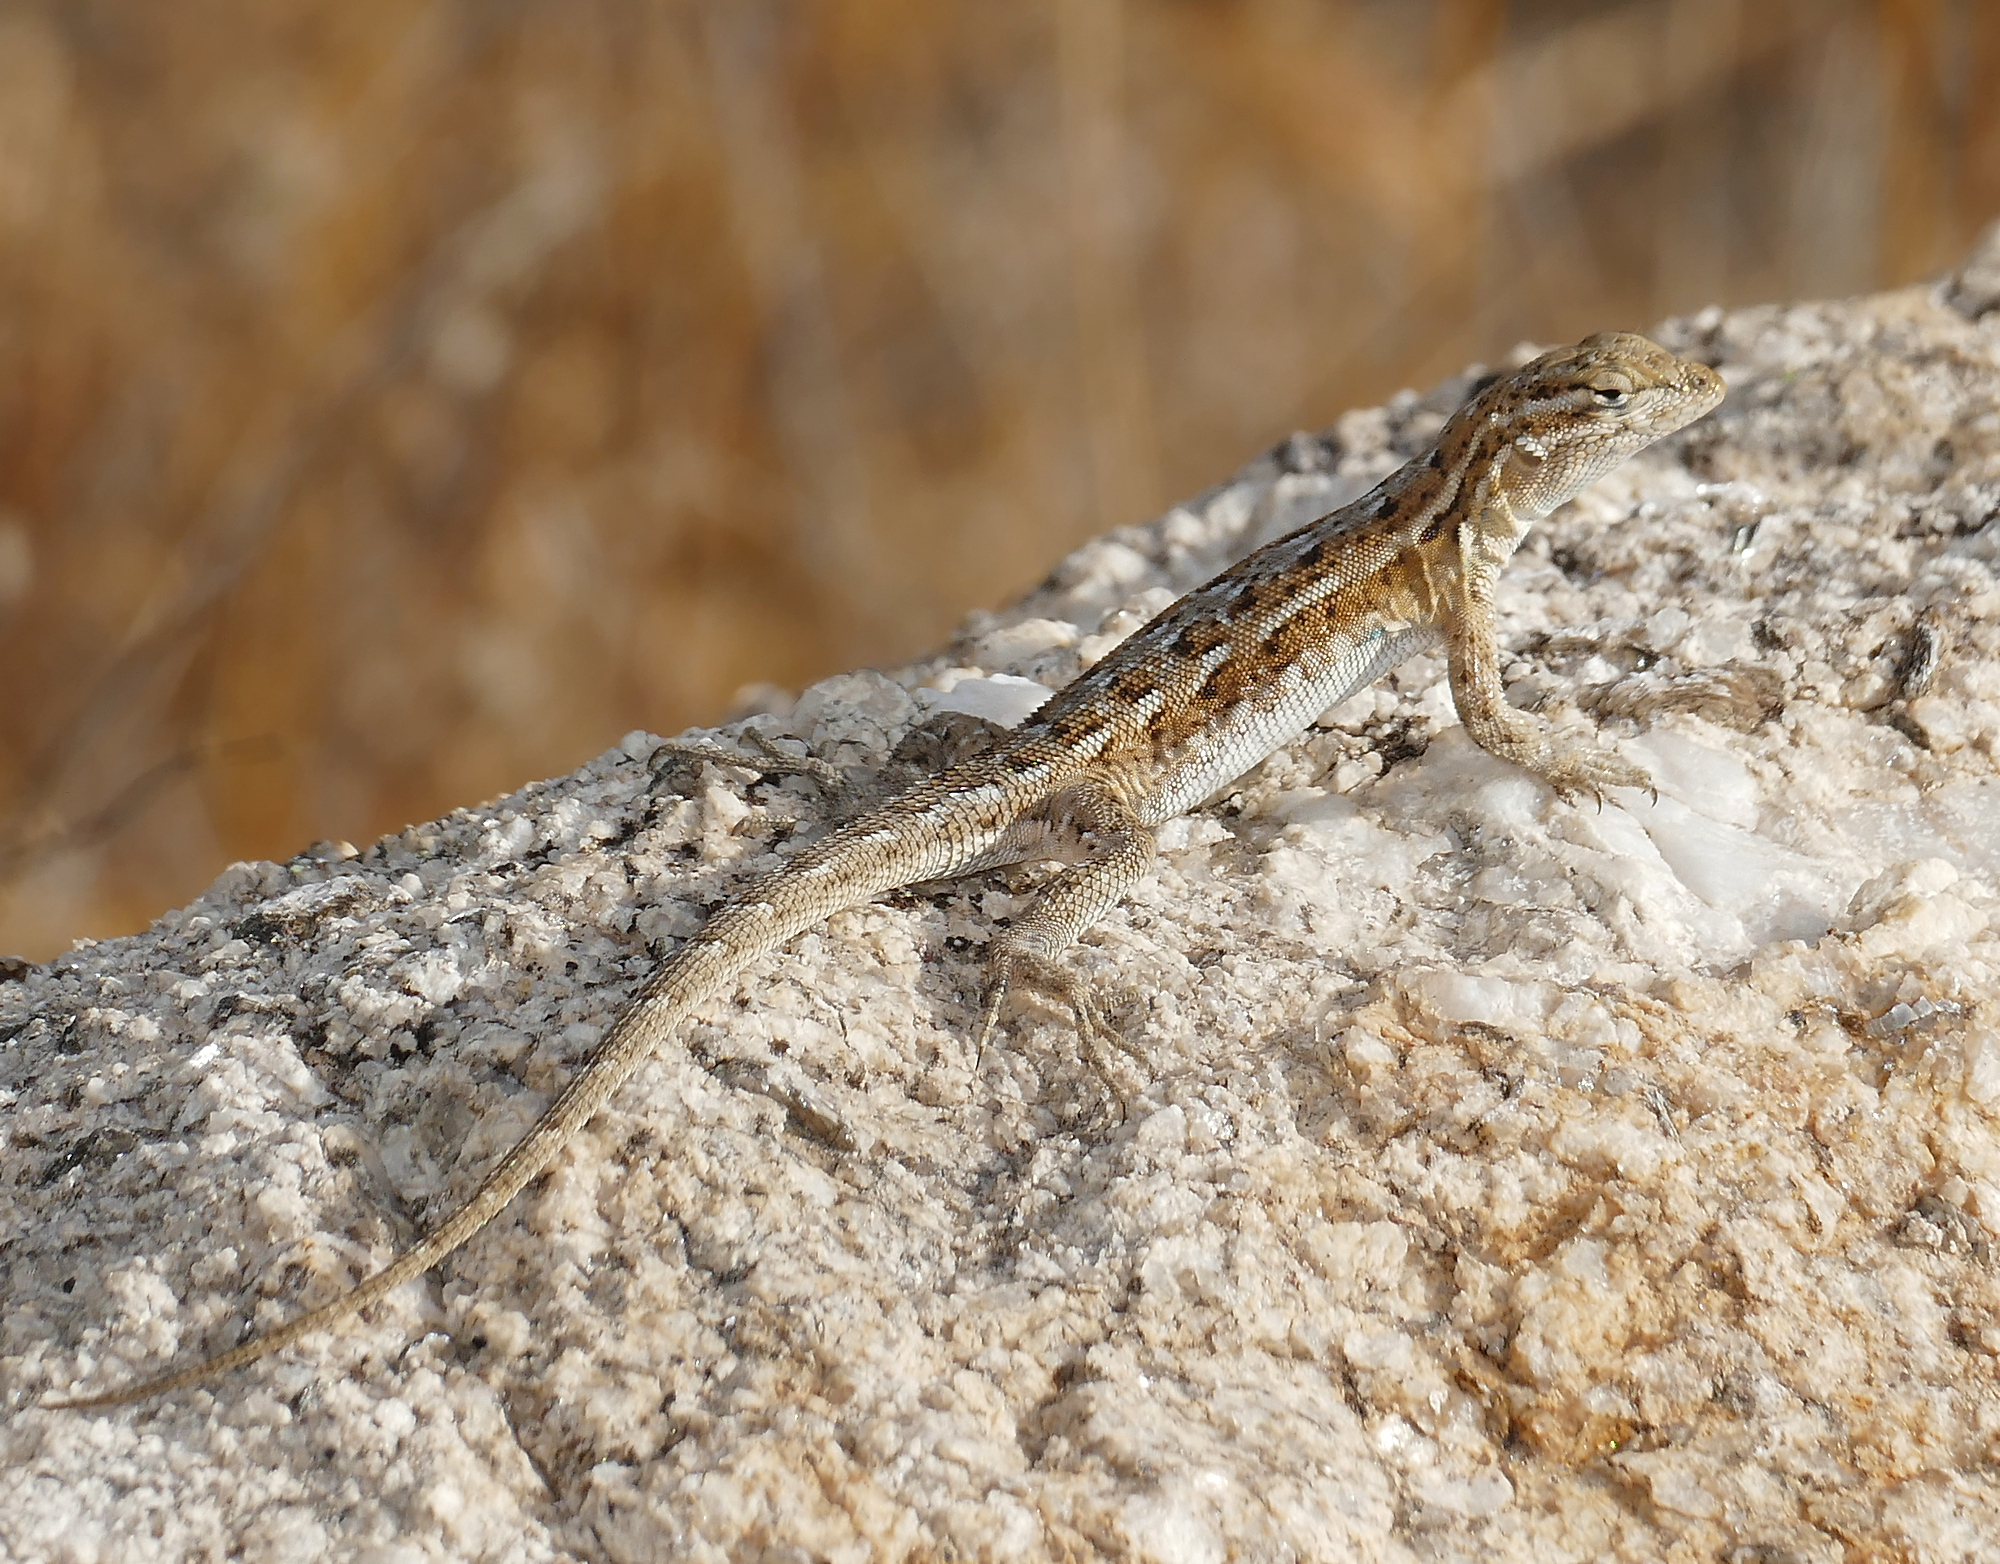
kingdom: Animalia
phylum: Chordata
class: Squamata
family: Phrynosomatidae
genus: Uta
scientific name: Uta stansburiana
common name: Side-blotched lizard
